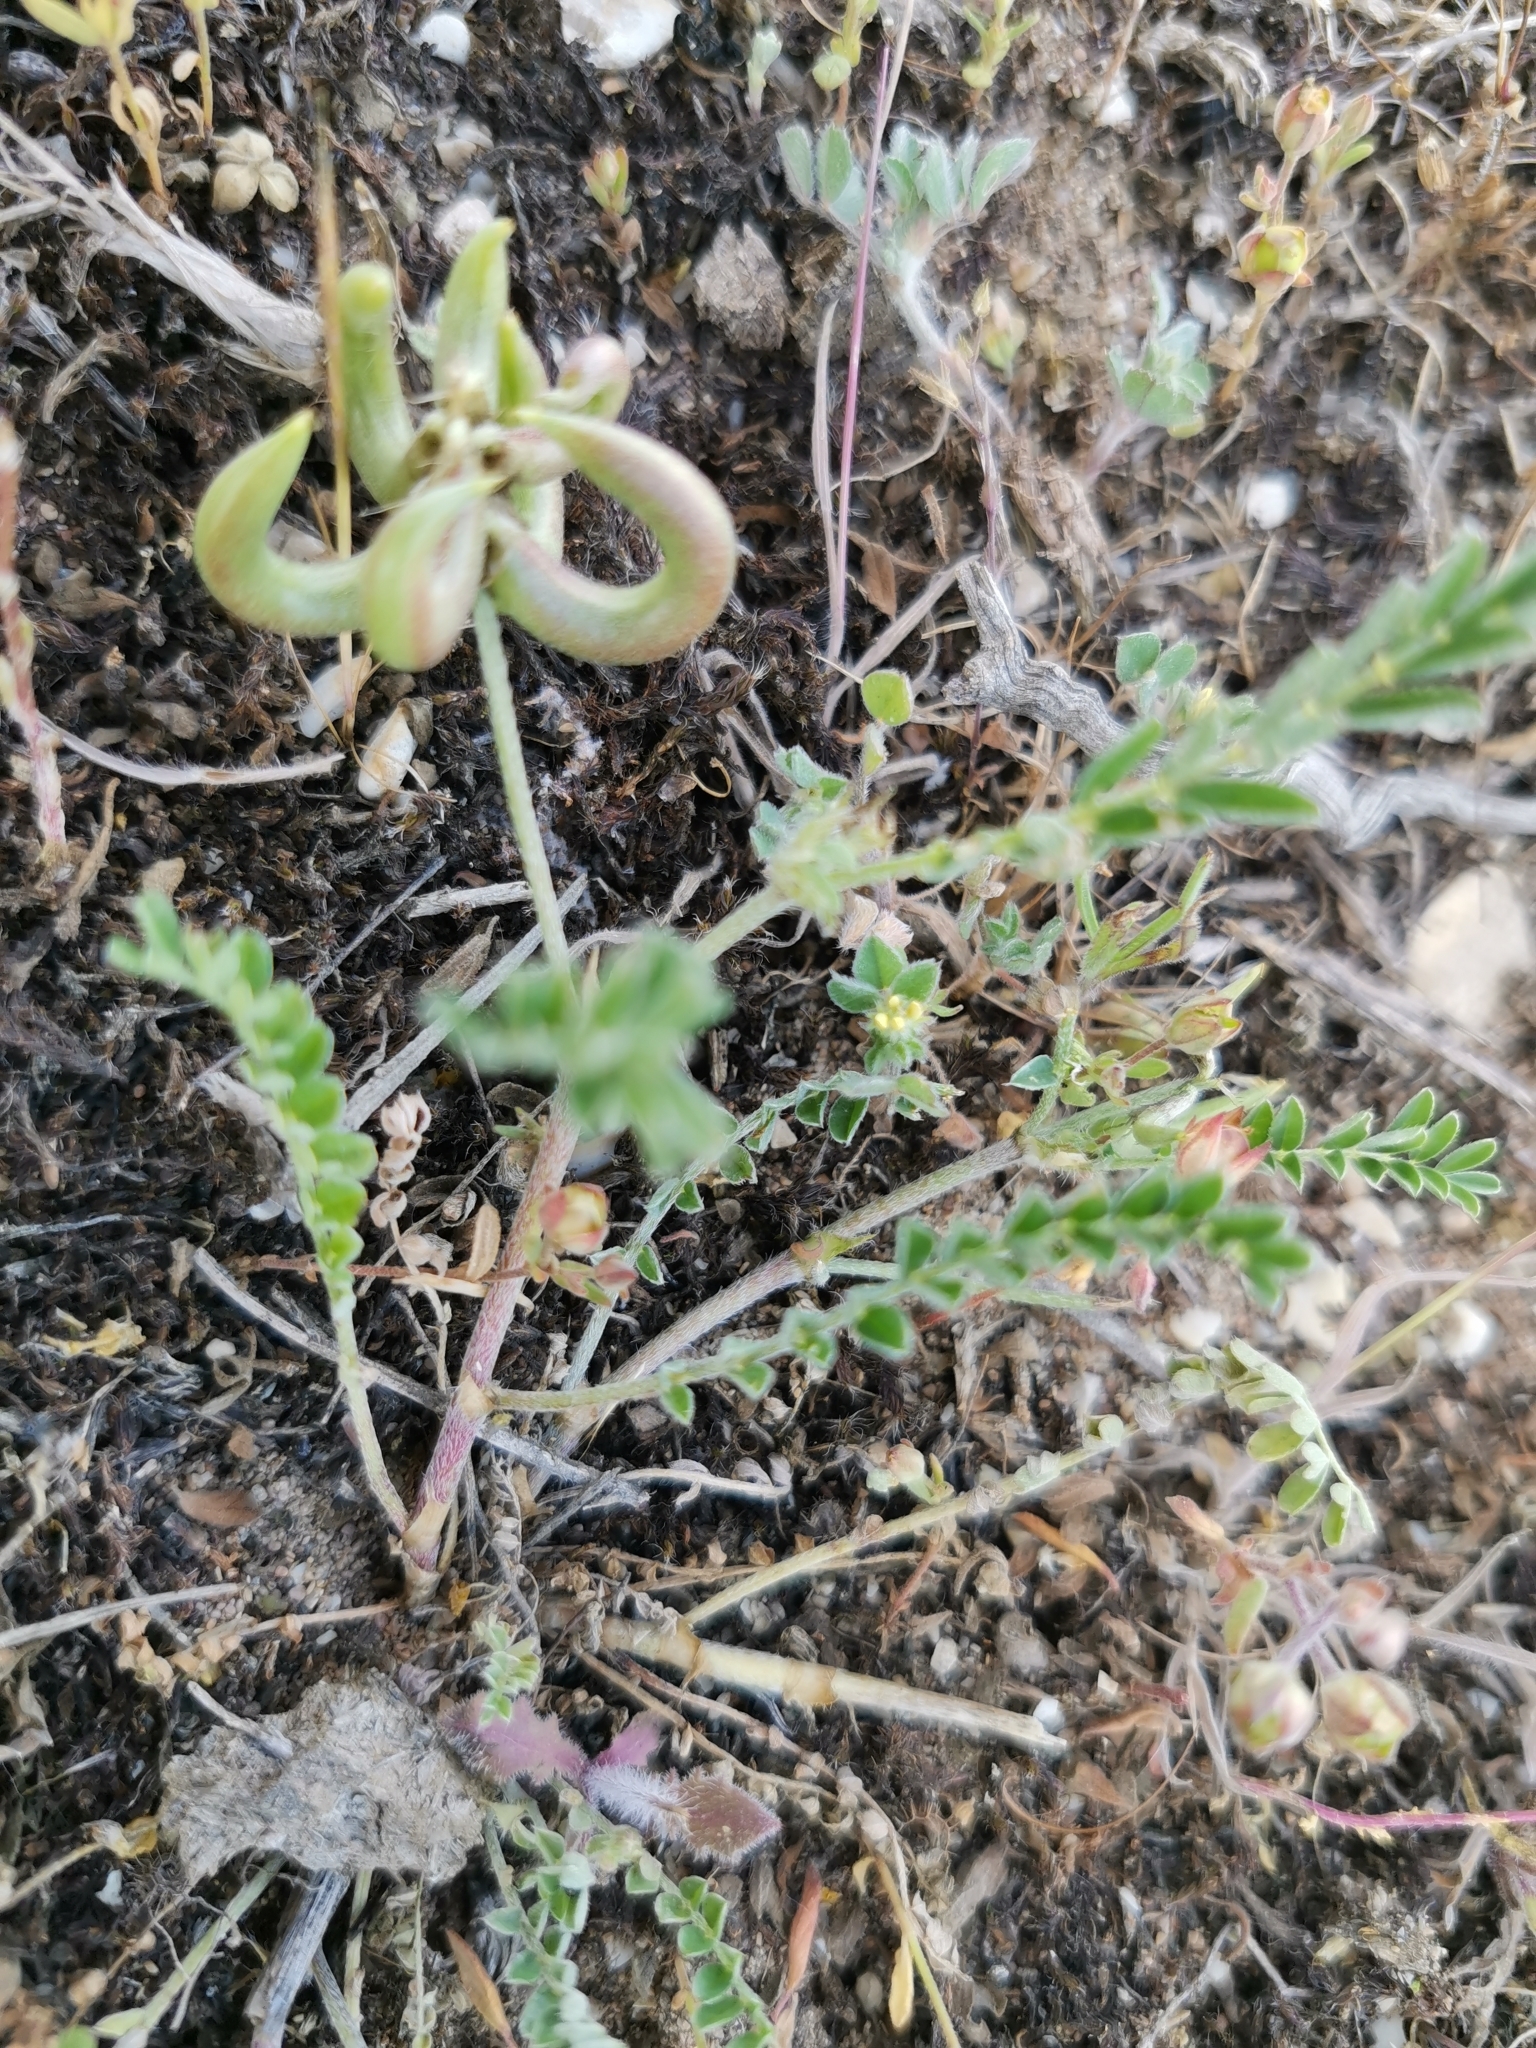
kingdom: Plantae
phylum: Tracheophyta
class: Magnoliopsida
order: Fabales
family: Fabaceae
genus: Astragalus
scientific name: Astragalus hamosus
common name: European milkvetch
